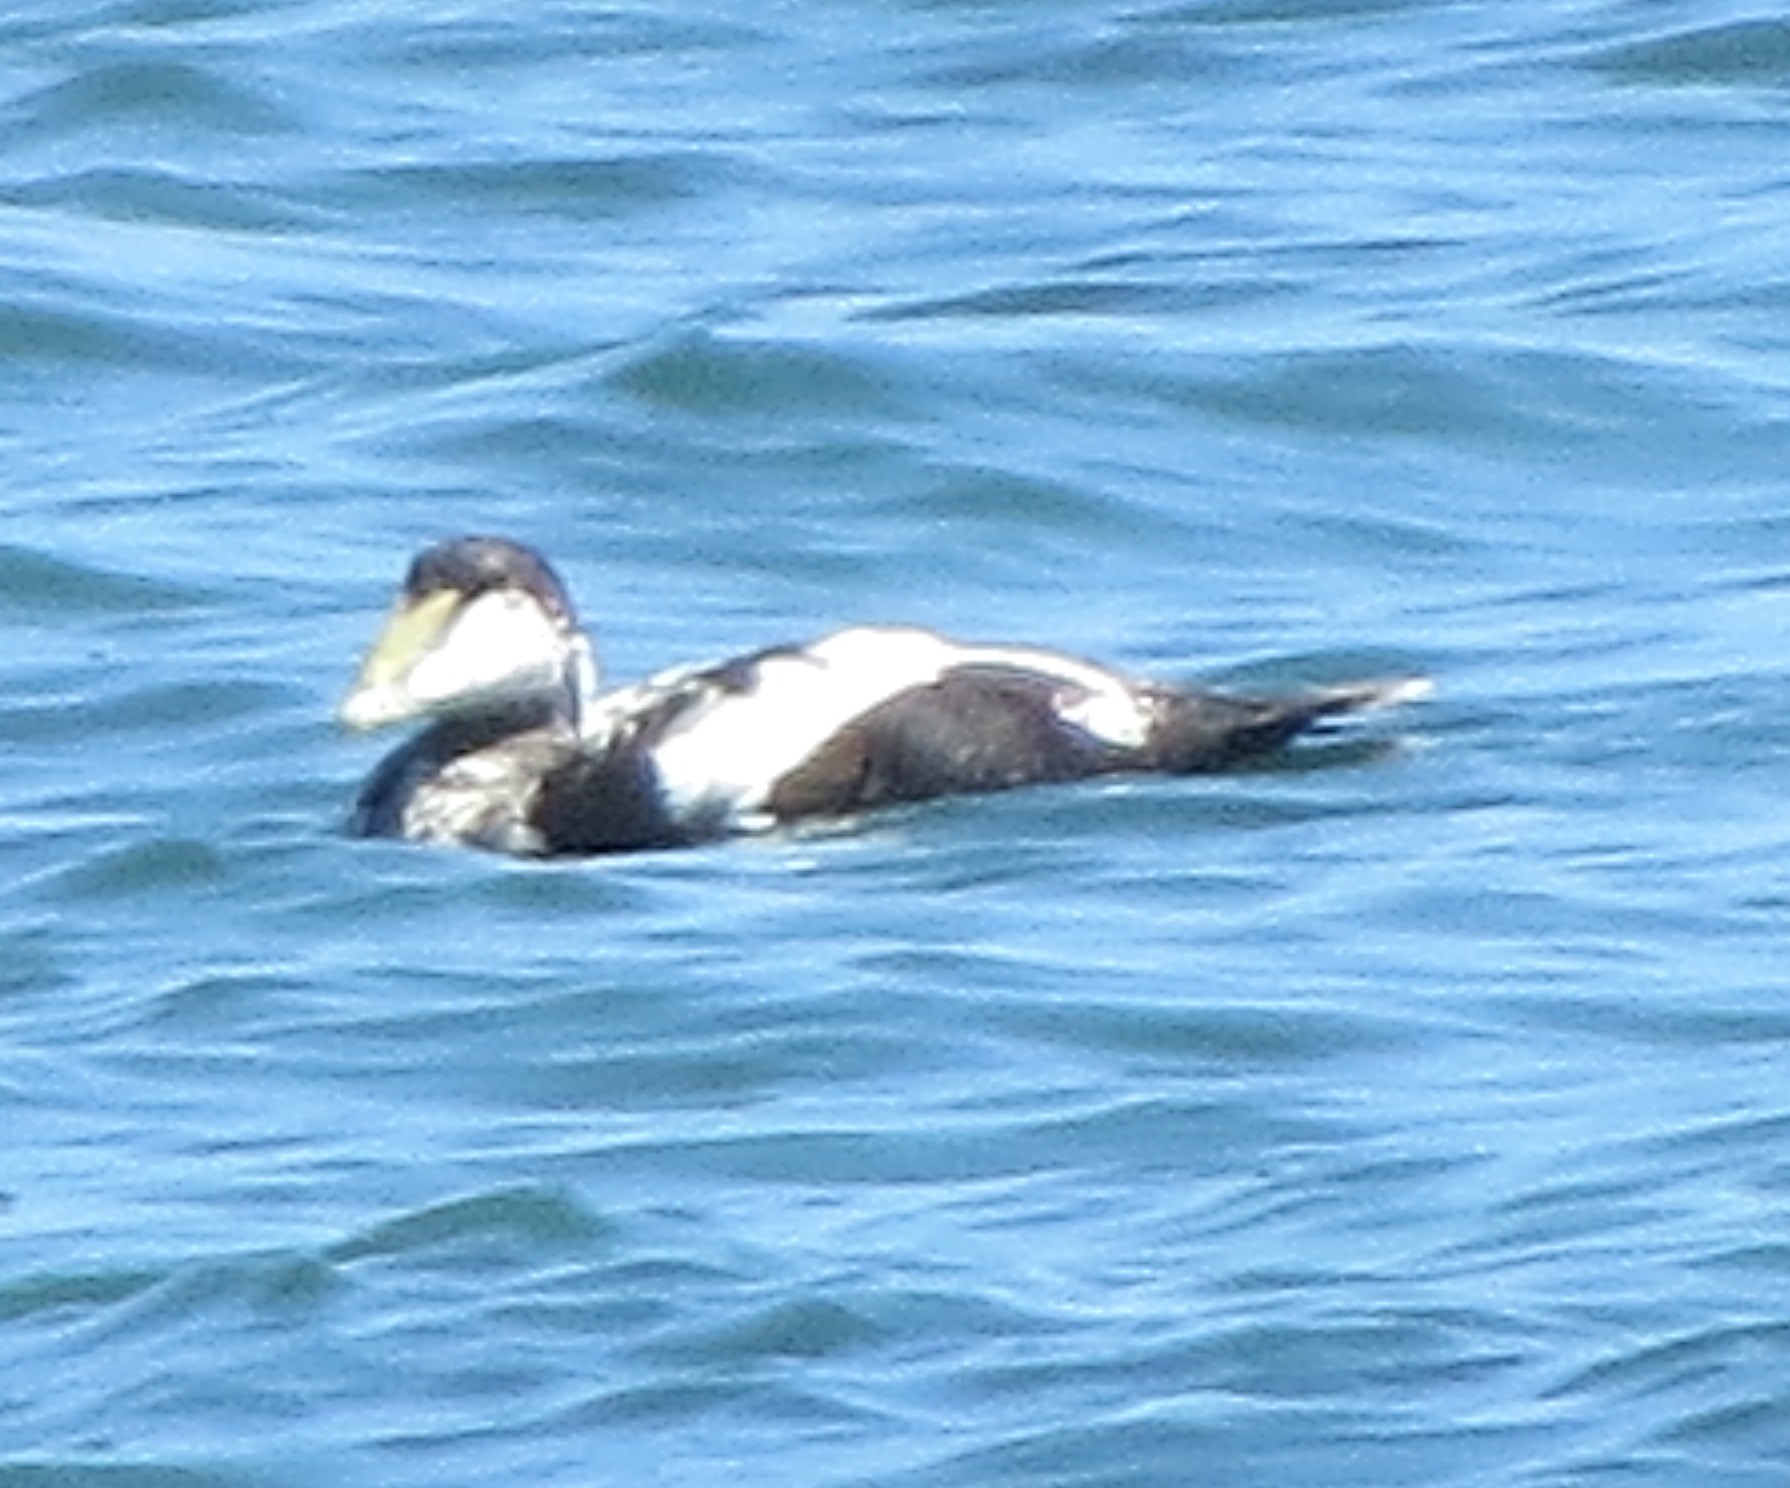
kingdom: Animalia
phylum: Chordata
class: Aves
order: Anseriformes
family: Anatidae
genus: Somateria
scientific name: Somateria mollissima
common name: Common eider
